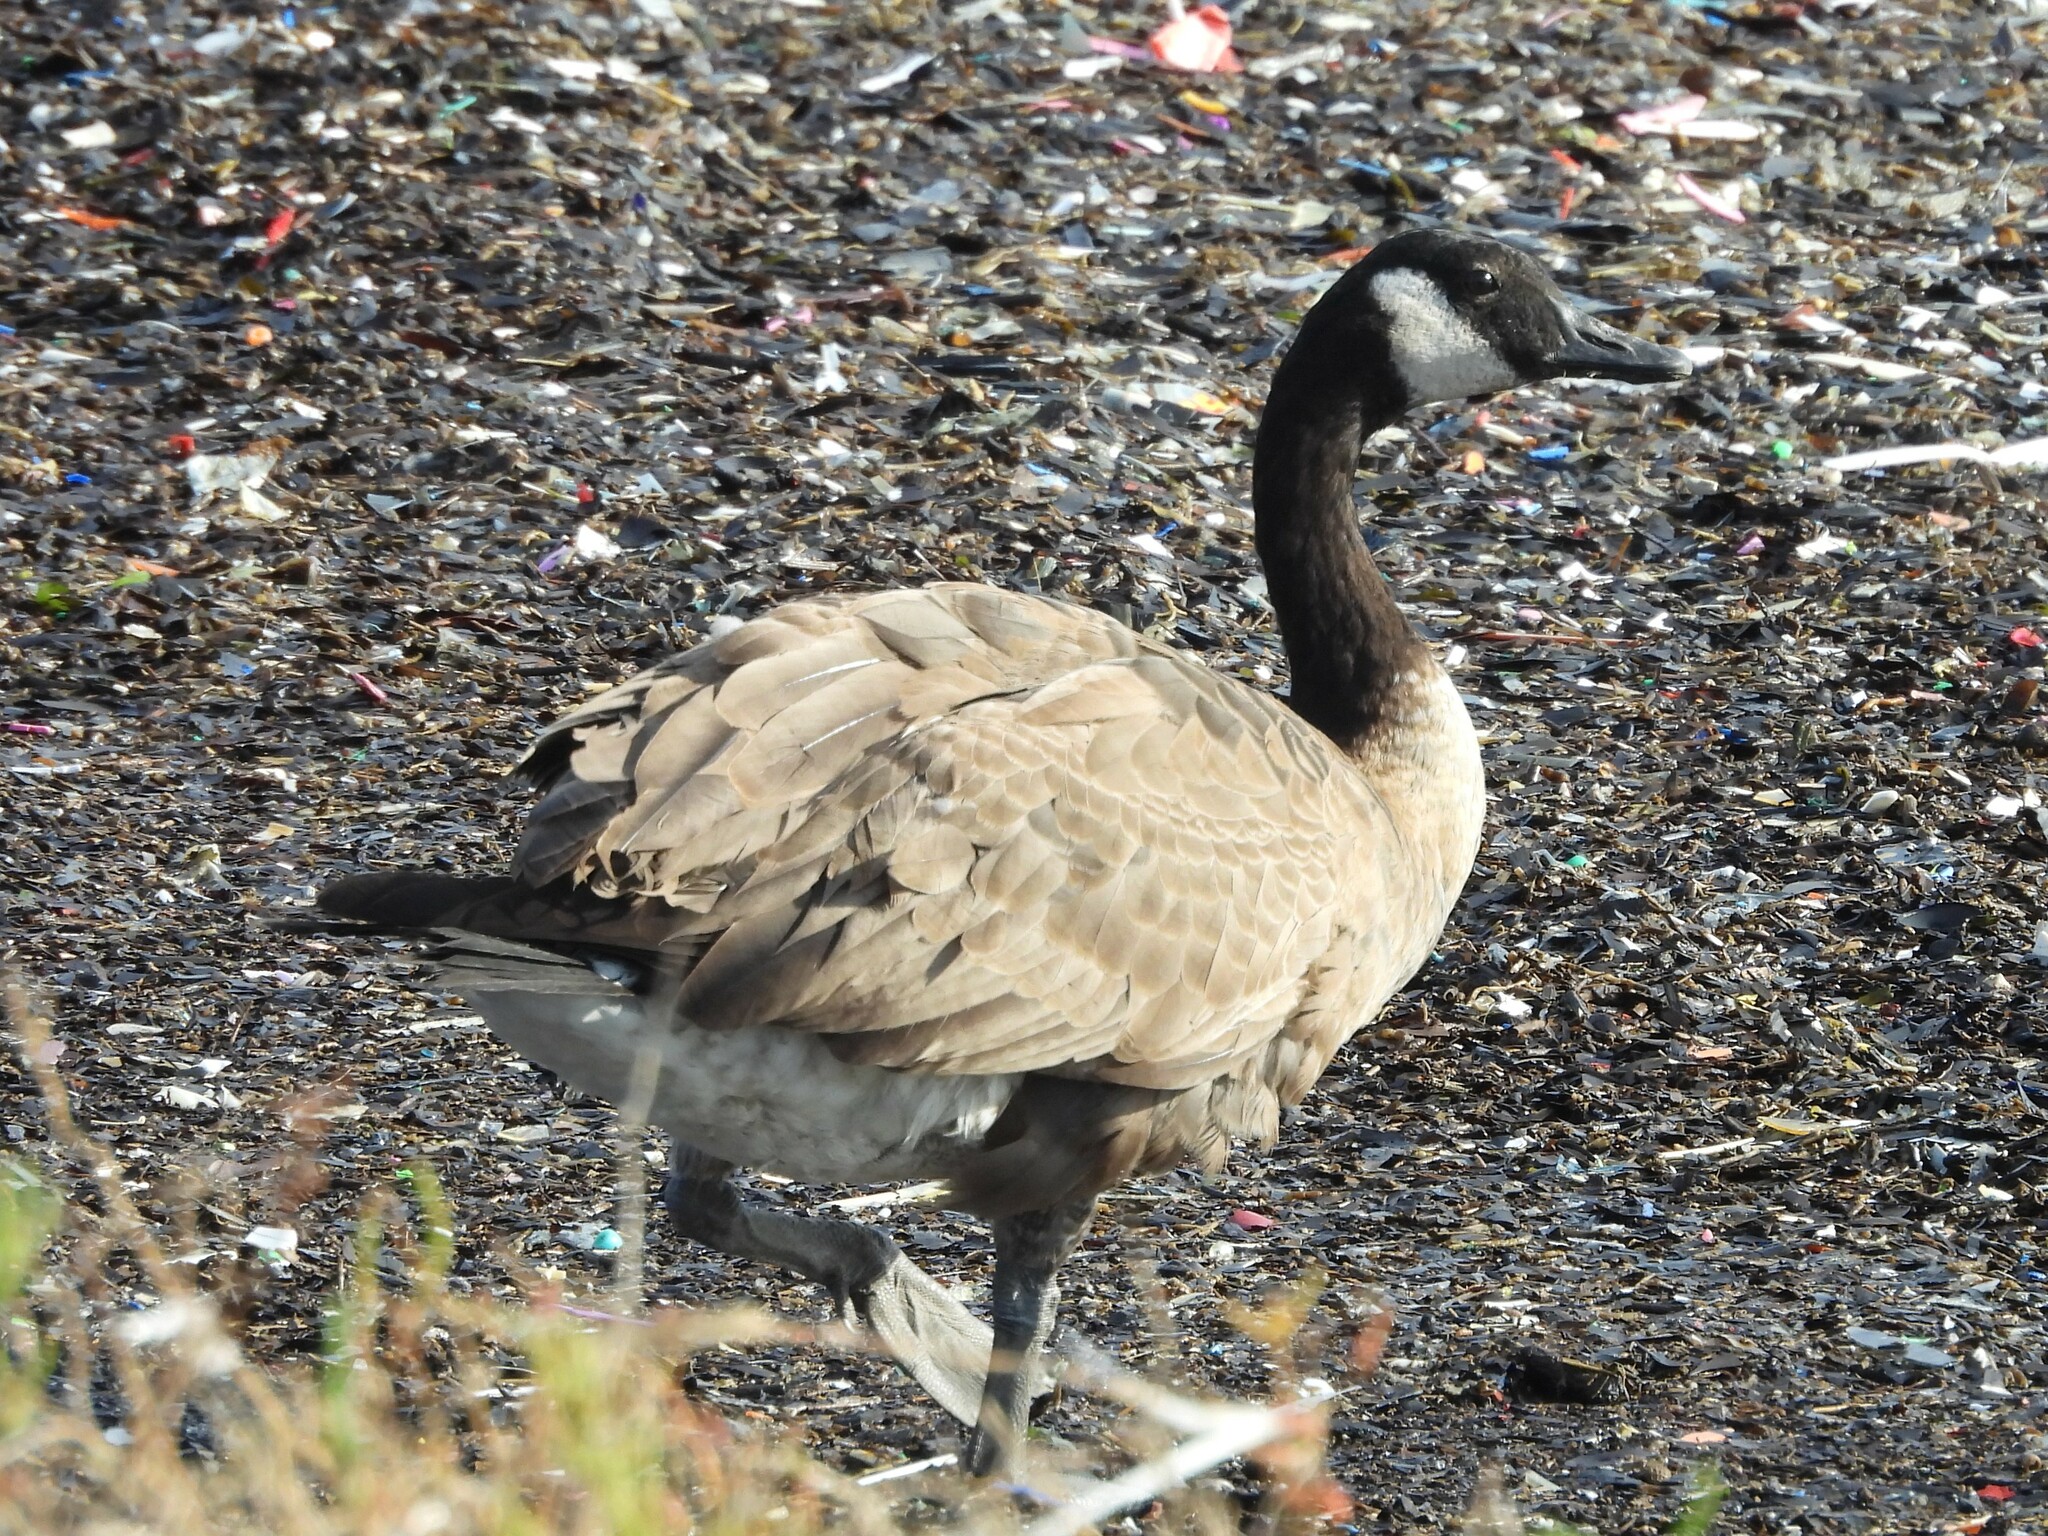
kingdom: Animalia
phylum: Chordata
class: Aves
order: Anseriformes
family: Anatidae
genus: Branta
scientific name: Branta canadensis
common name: Canada goose
